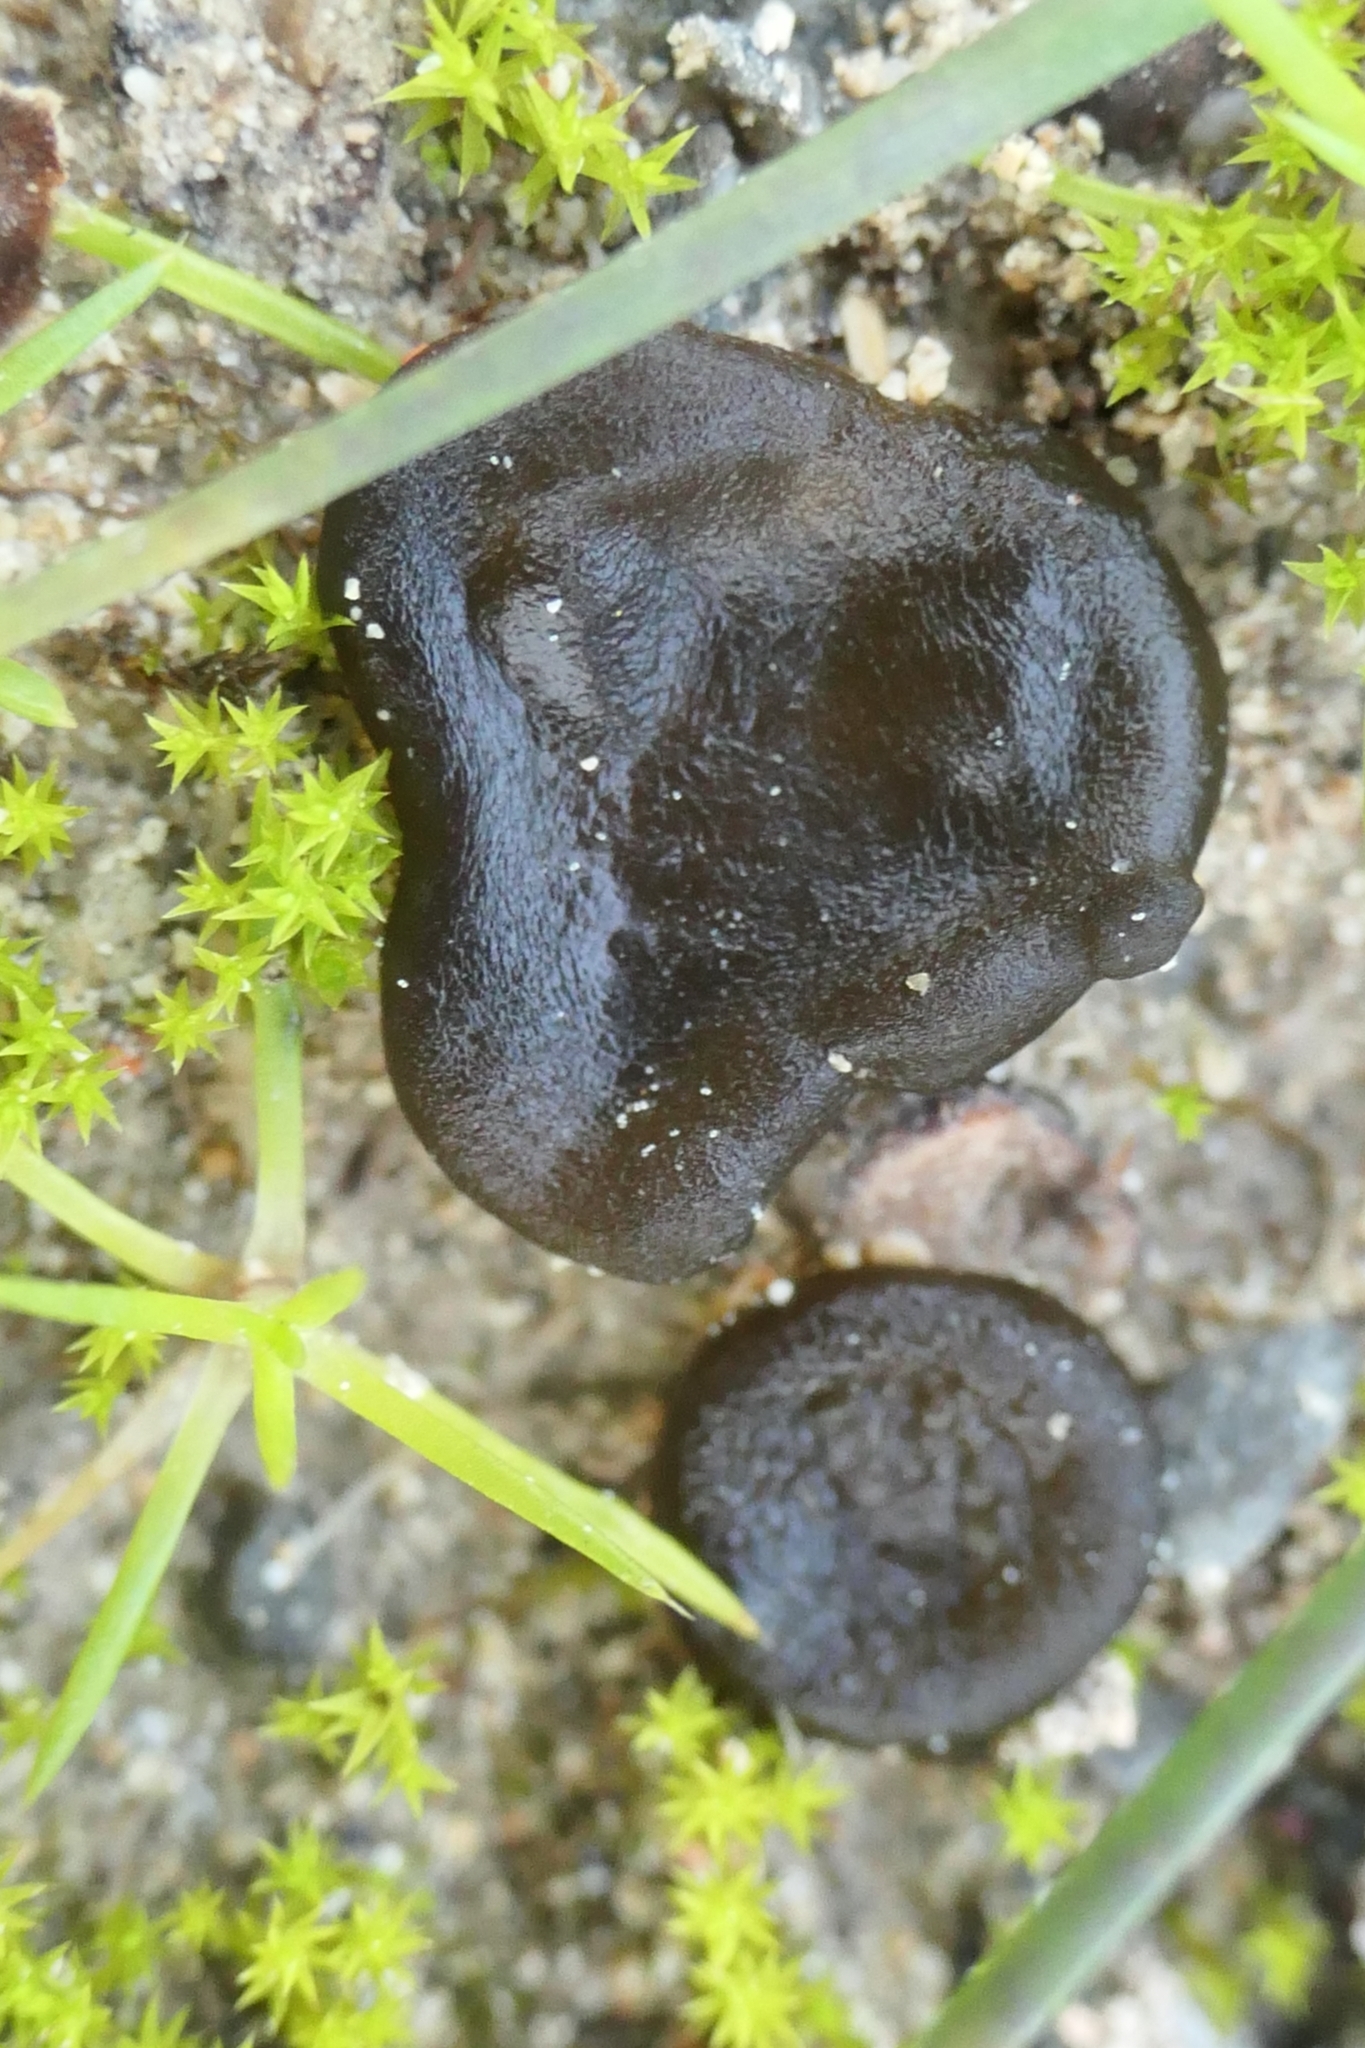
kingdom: Bacteria
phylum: Cyanobacteria
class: Cyanobacteriia
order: Cyanobacteriales
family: Nostocaceae
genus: Nostoc
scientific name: Nostoc commune
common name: Star jelly
